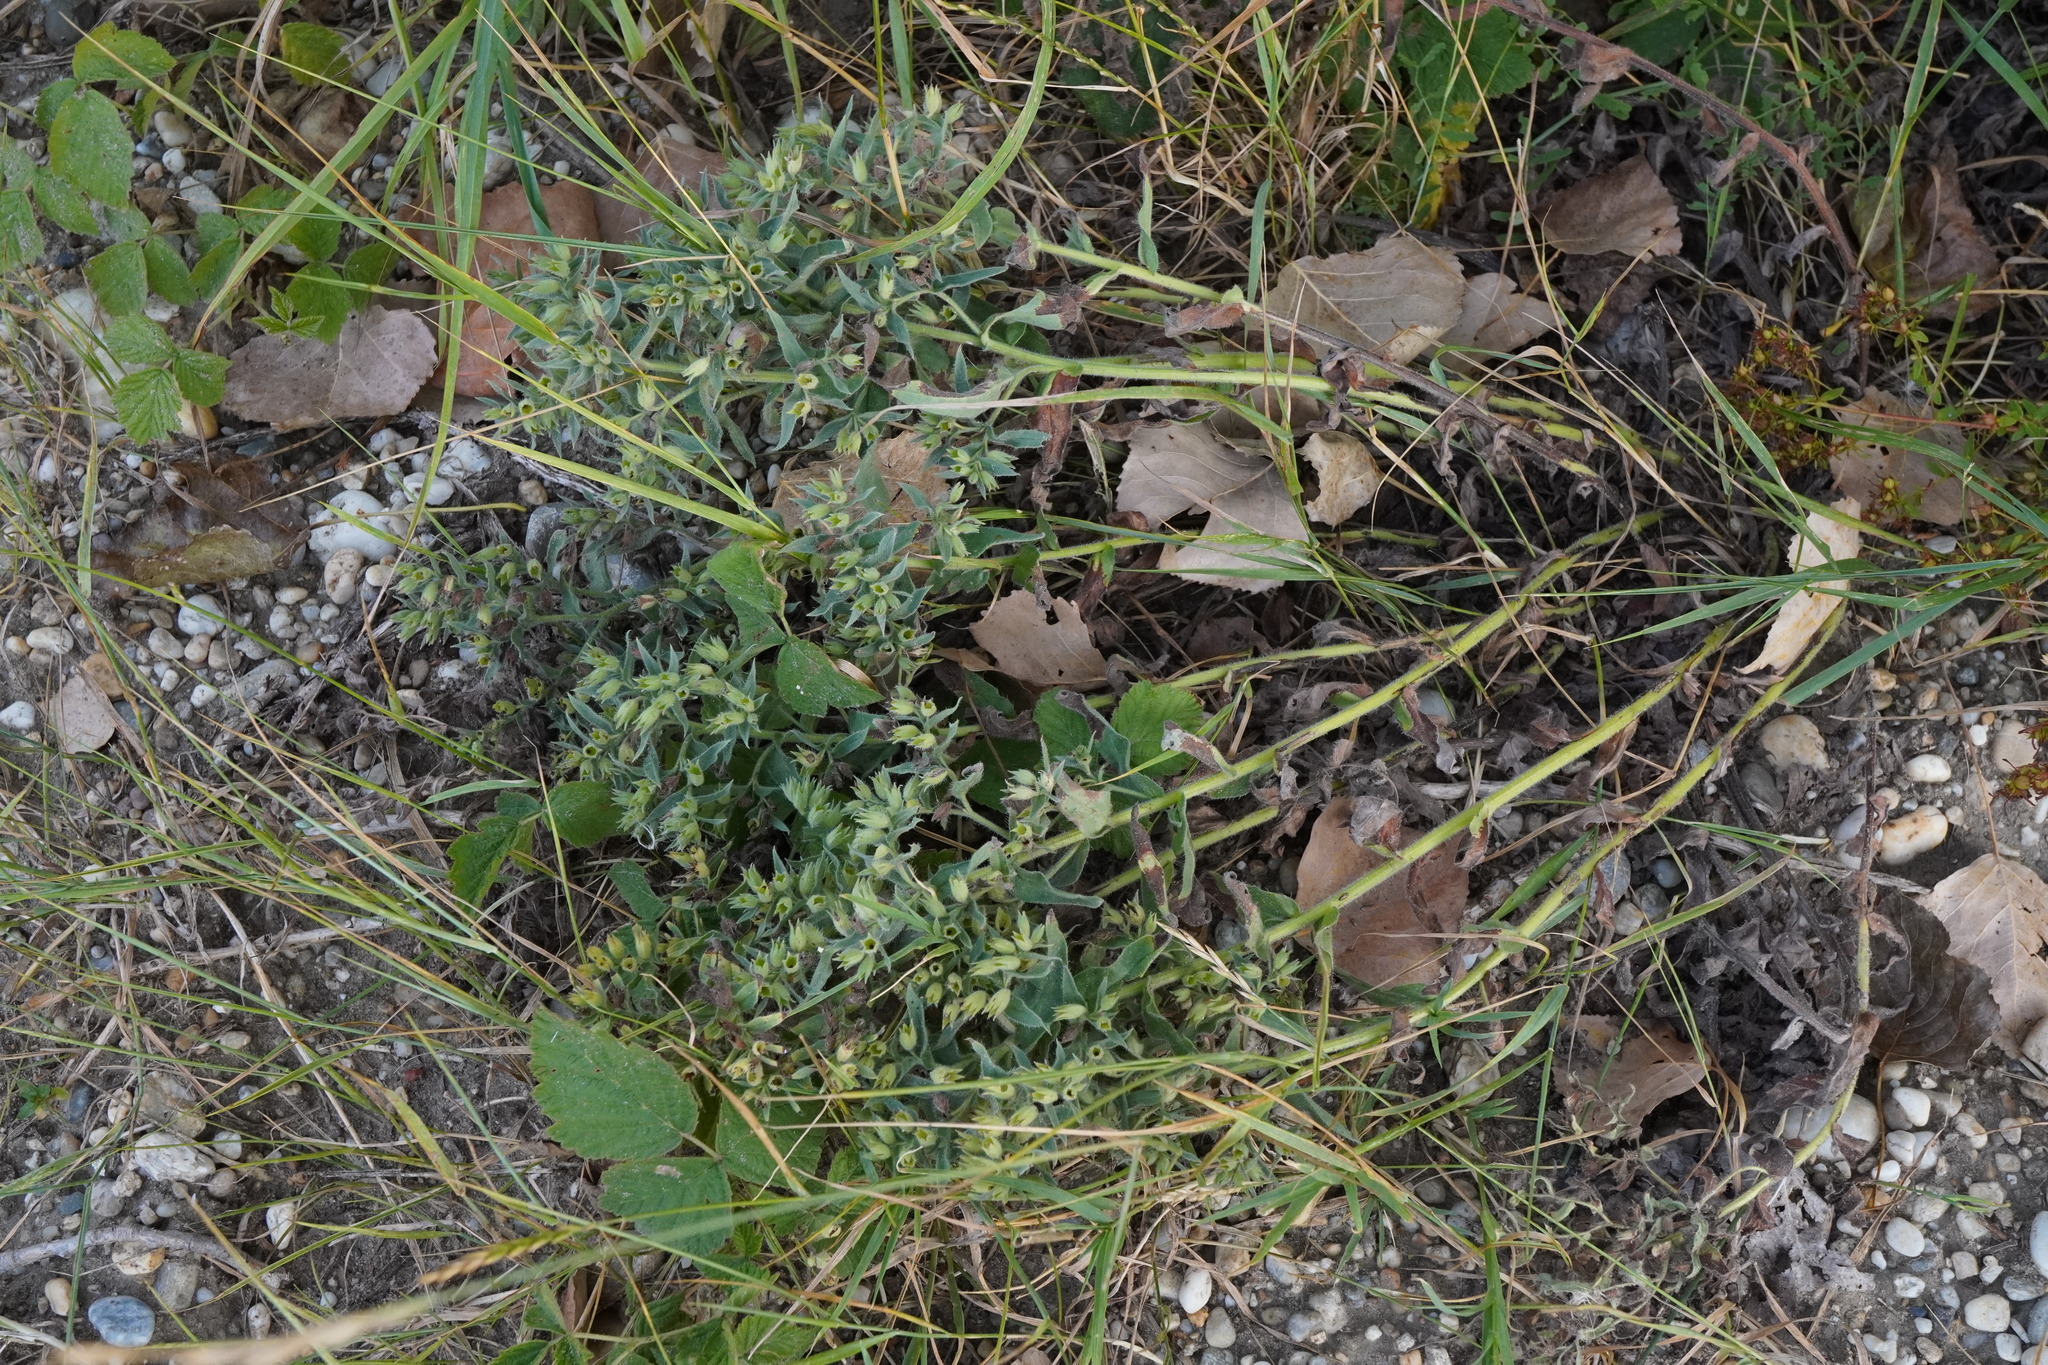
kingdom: Plantae
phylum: Tracheophyta
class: Magnoliopsida
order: Boraginales
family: Boraginaceae
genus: Nonea
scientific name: Nonea pulla
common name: Brown nonea
